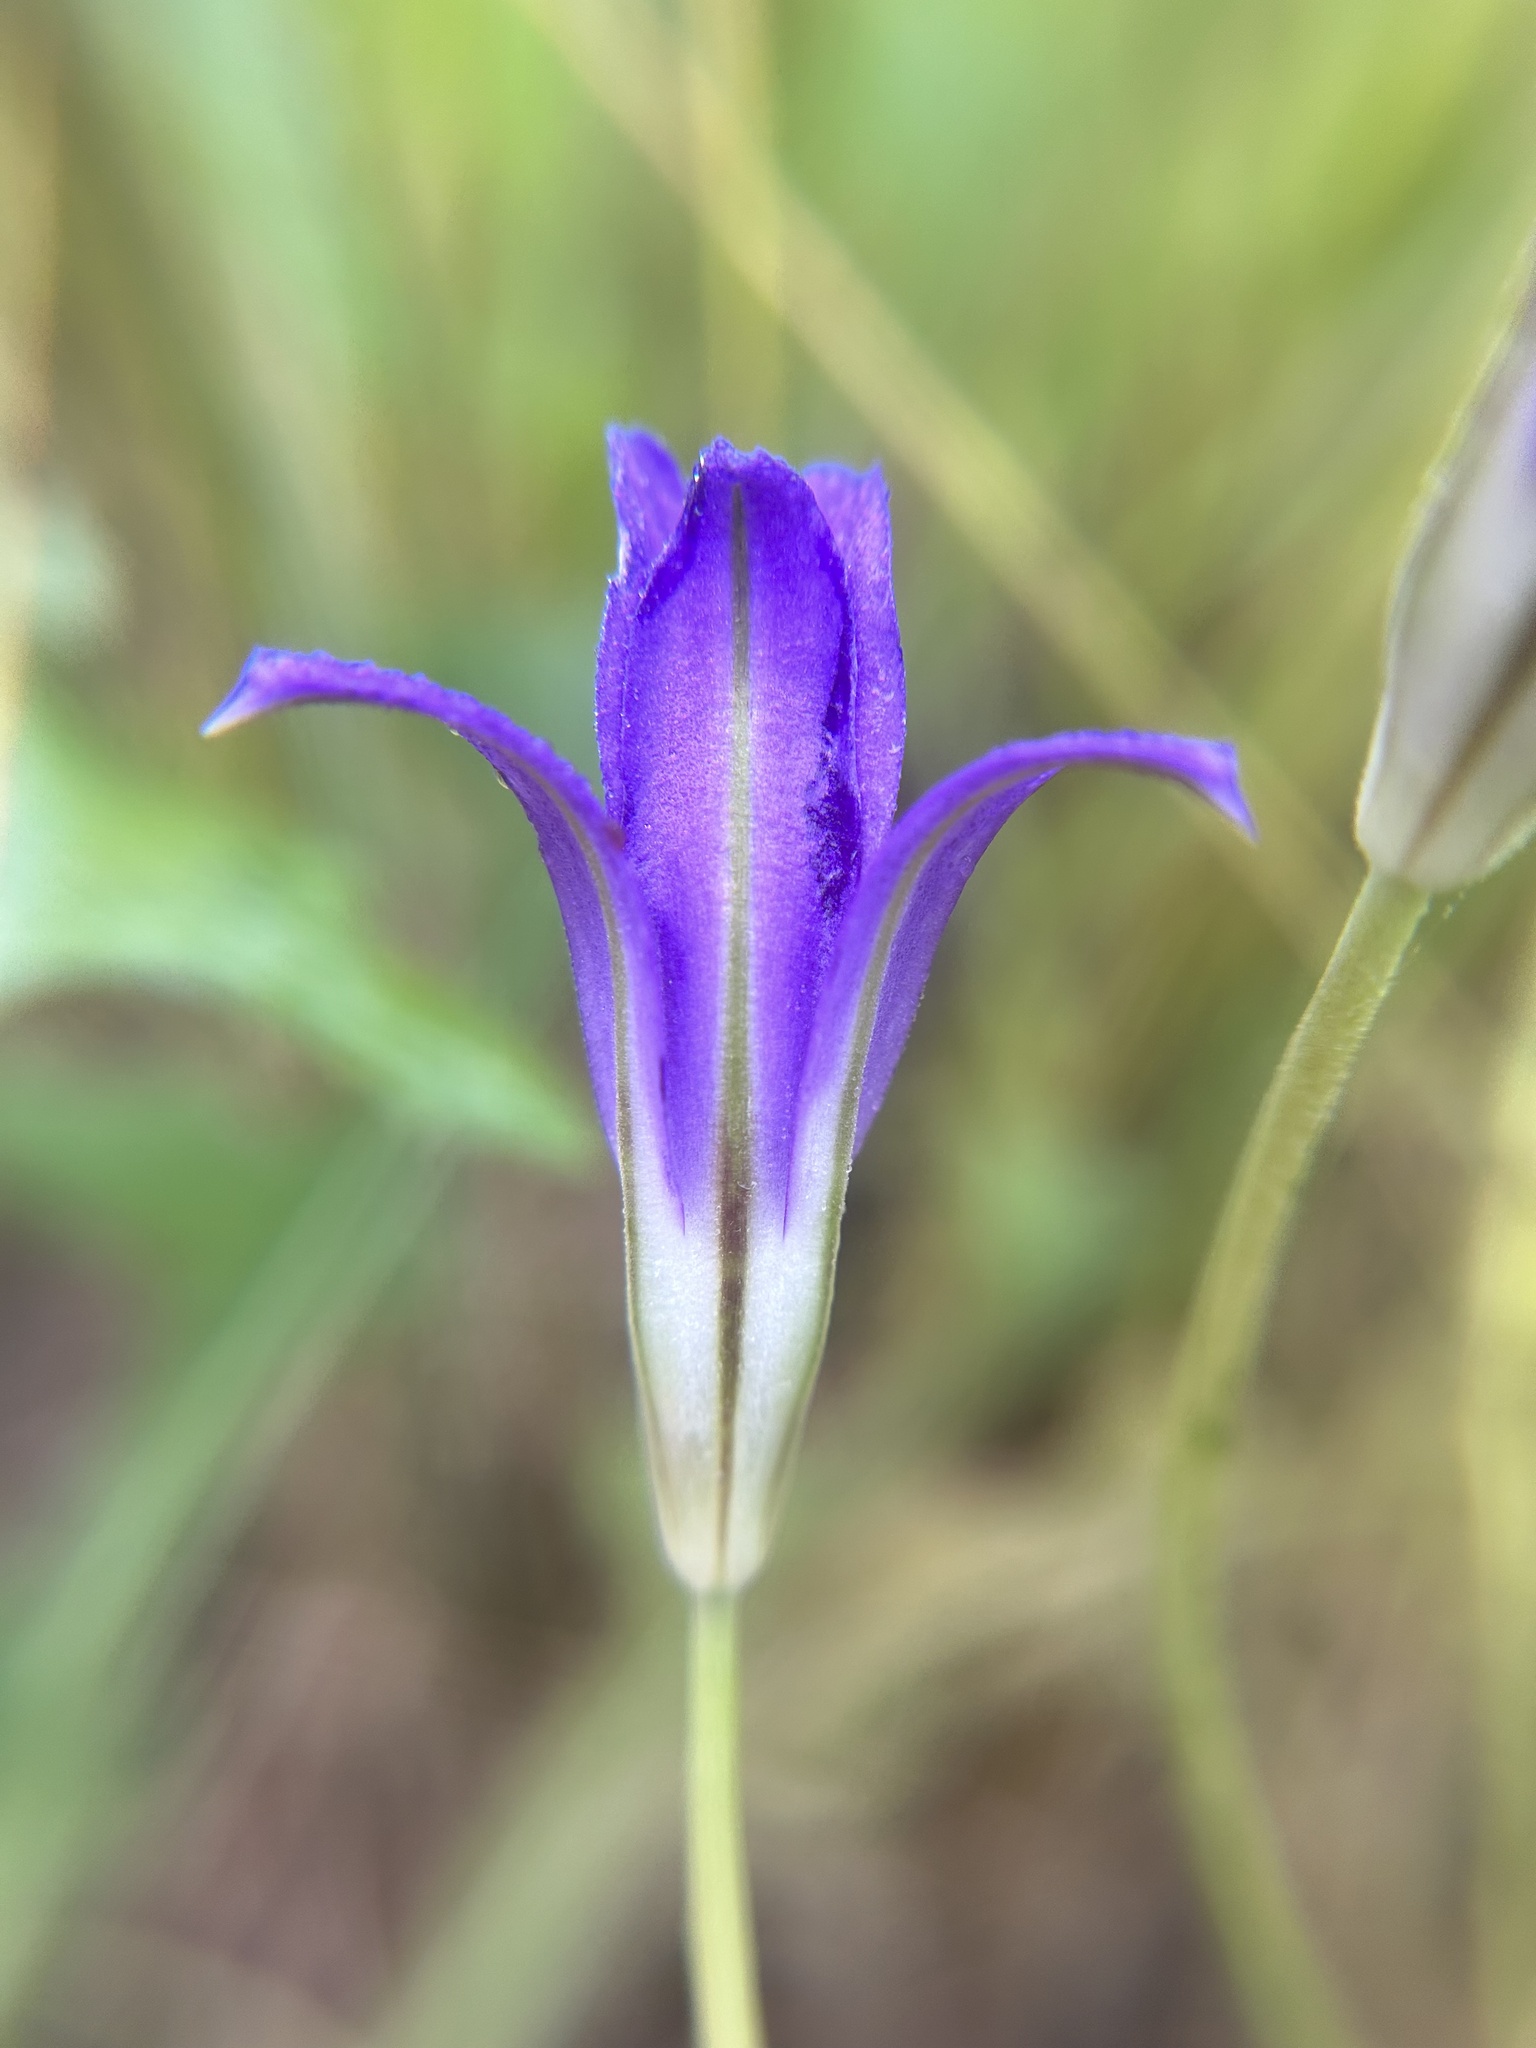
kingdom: Plantae
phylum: Tracheophyta
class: Liliopsida
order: Asparagales
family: Asparagaceae
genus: Brodiaea
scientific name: Brodiaea jolonensis
